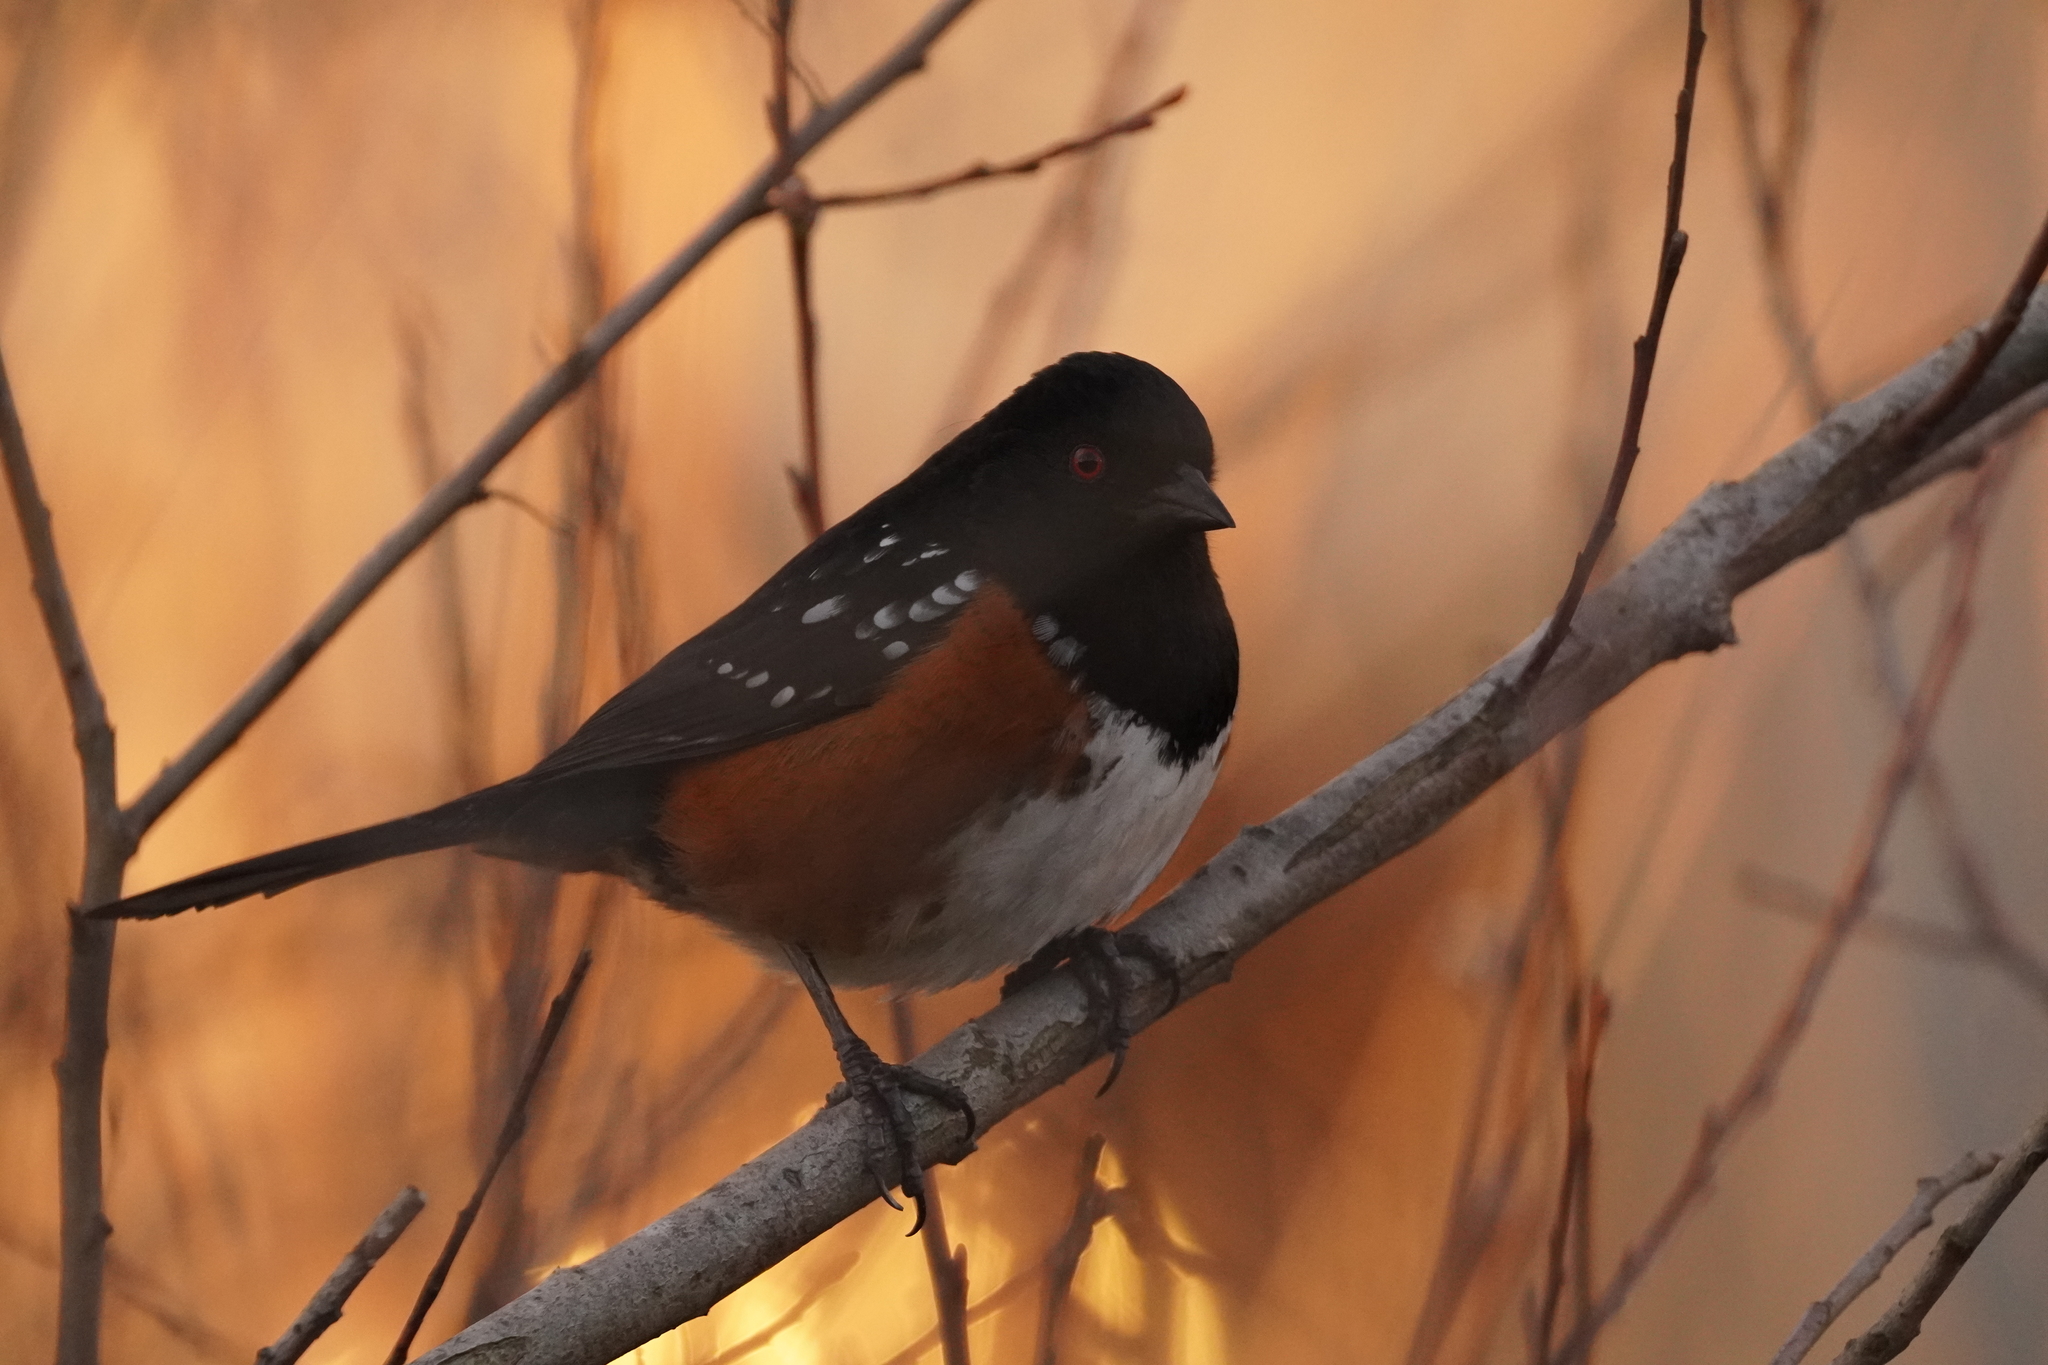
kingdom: Animalia
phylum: Chordata
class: Aves
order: Passeriformes
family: Passerellidae
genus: Pipilo
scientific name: Pipilo maculatus
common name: Spotted towhee
